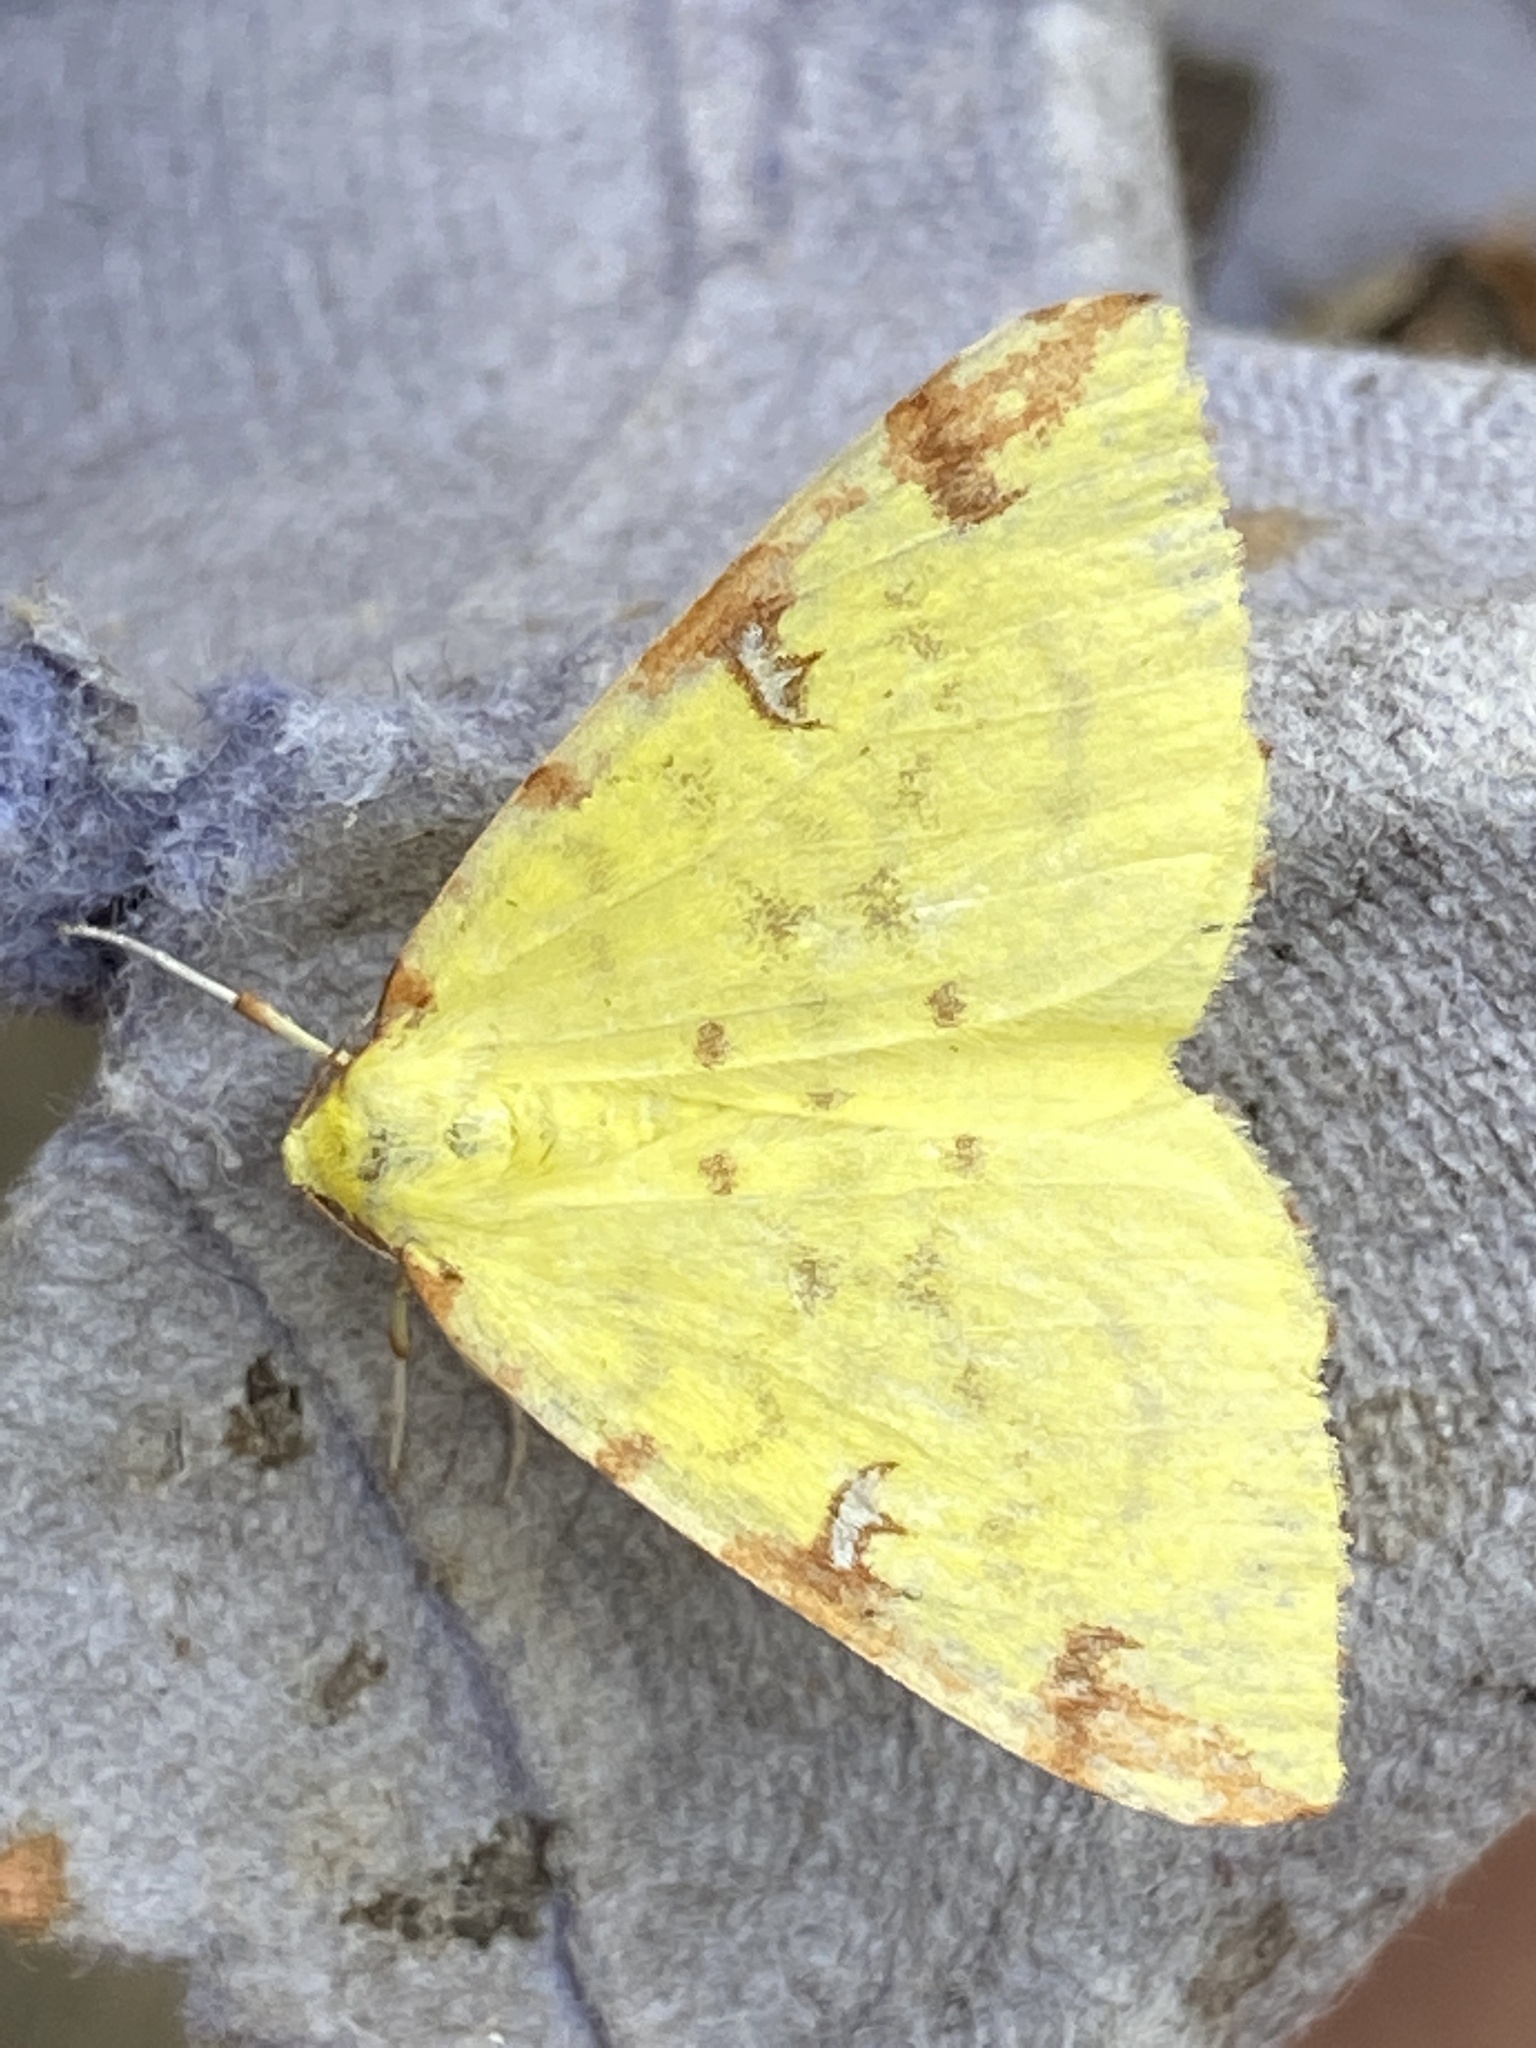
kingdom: Animalia
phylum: Arthropoda
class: Insecta
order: Lepidoptera
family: Geometridae
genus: Opisthograptis
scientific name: Opisthograptis luteolata
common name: Brimstone moth
